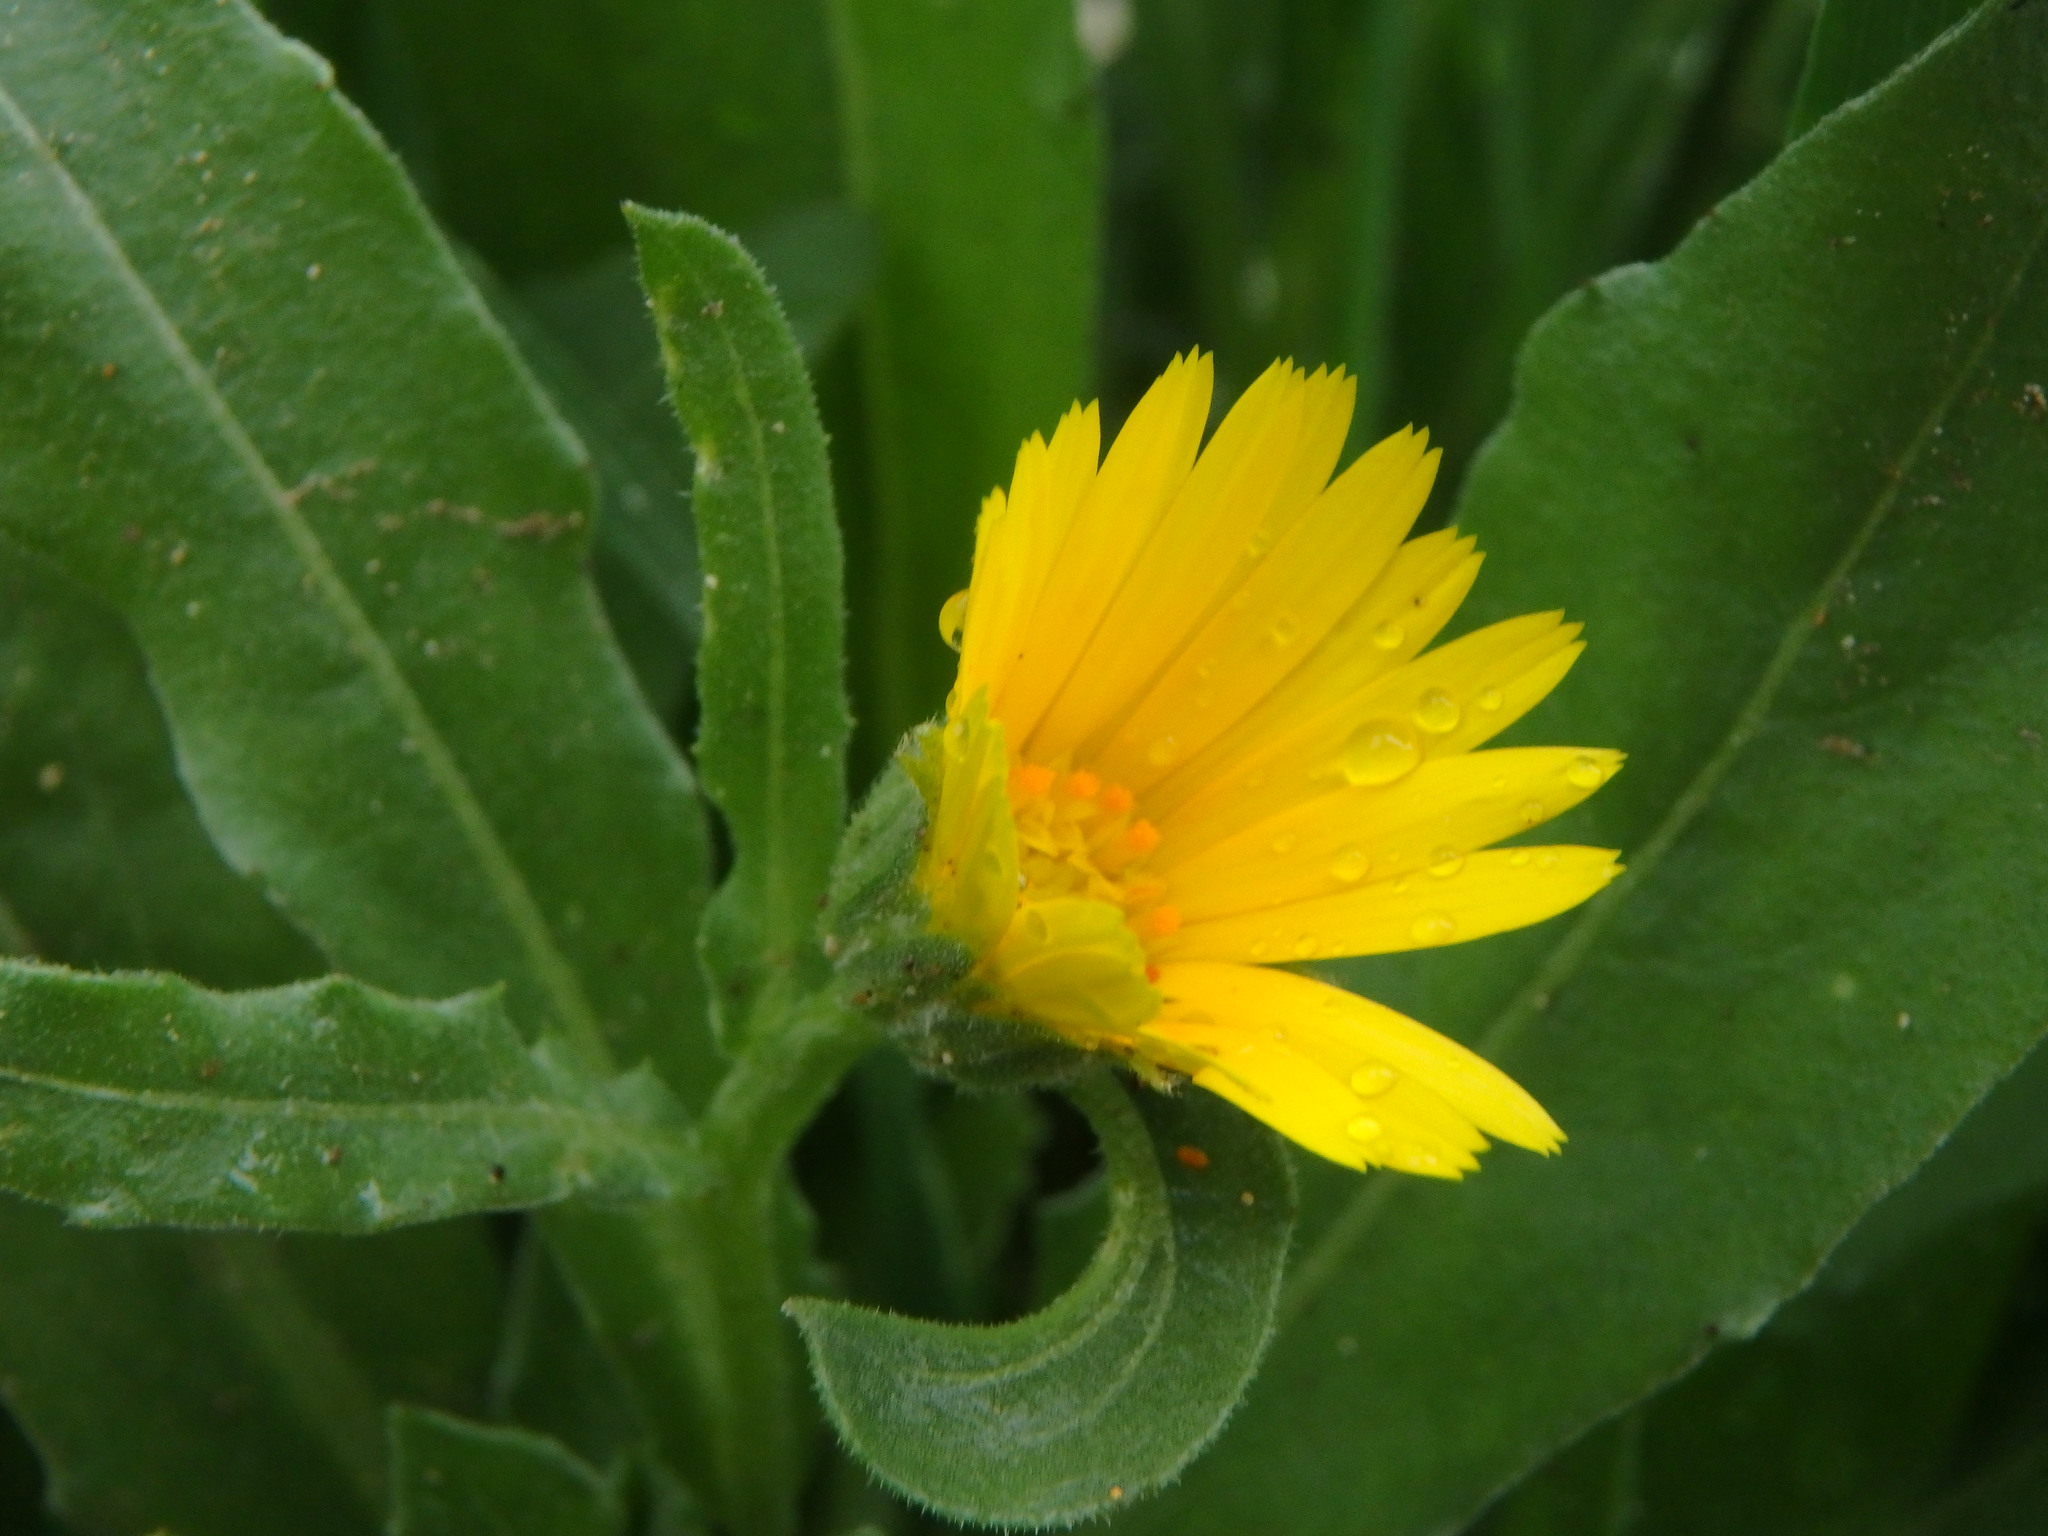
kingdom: Plantae
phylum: Tracheophyta
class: Magnoliopsida
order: Asterales
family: Asteraceae
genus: Calendula
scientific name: Calendula arvensis
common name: Field marigold
